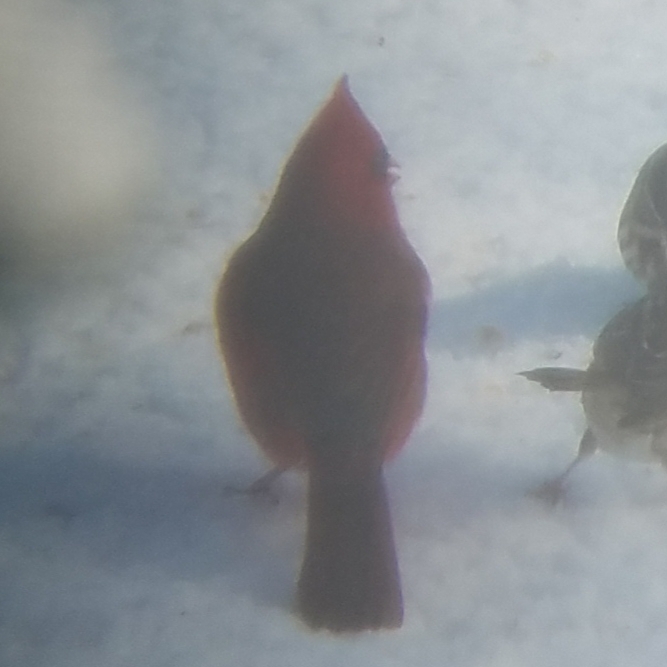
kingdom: Animalia
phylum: Chordata
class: Aves
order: Passeriformes
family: Cardinalidae
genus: Cardinalis
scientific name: Cardinalis cardinalis
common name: Northern cardinal
